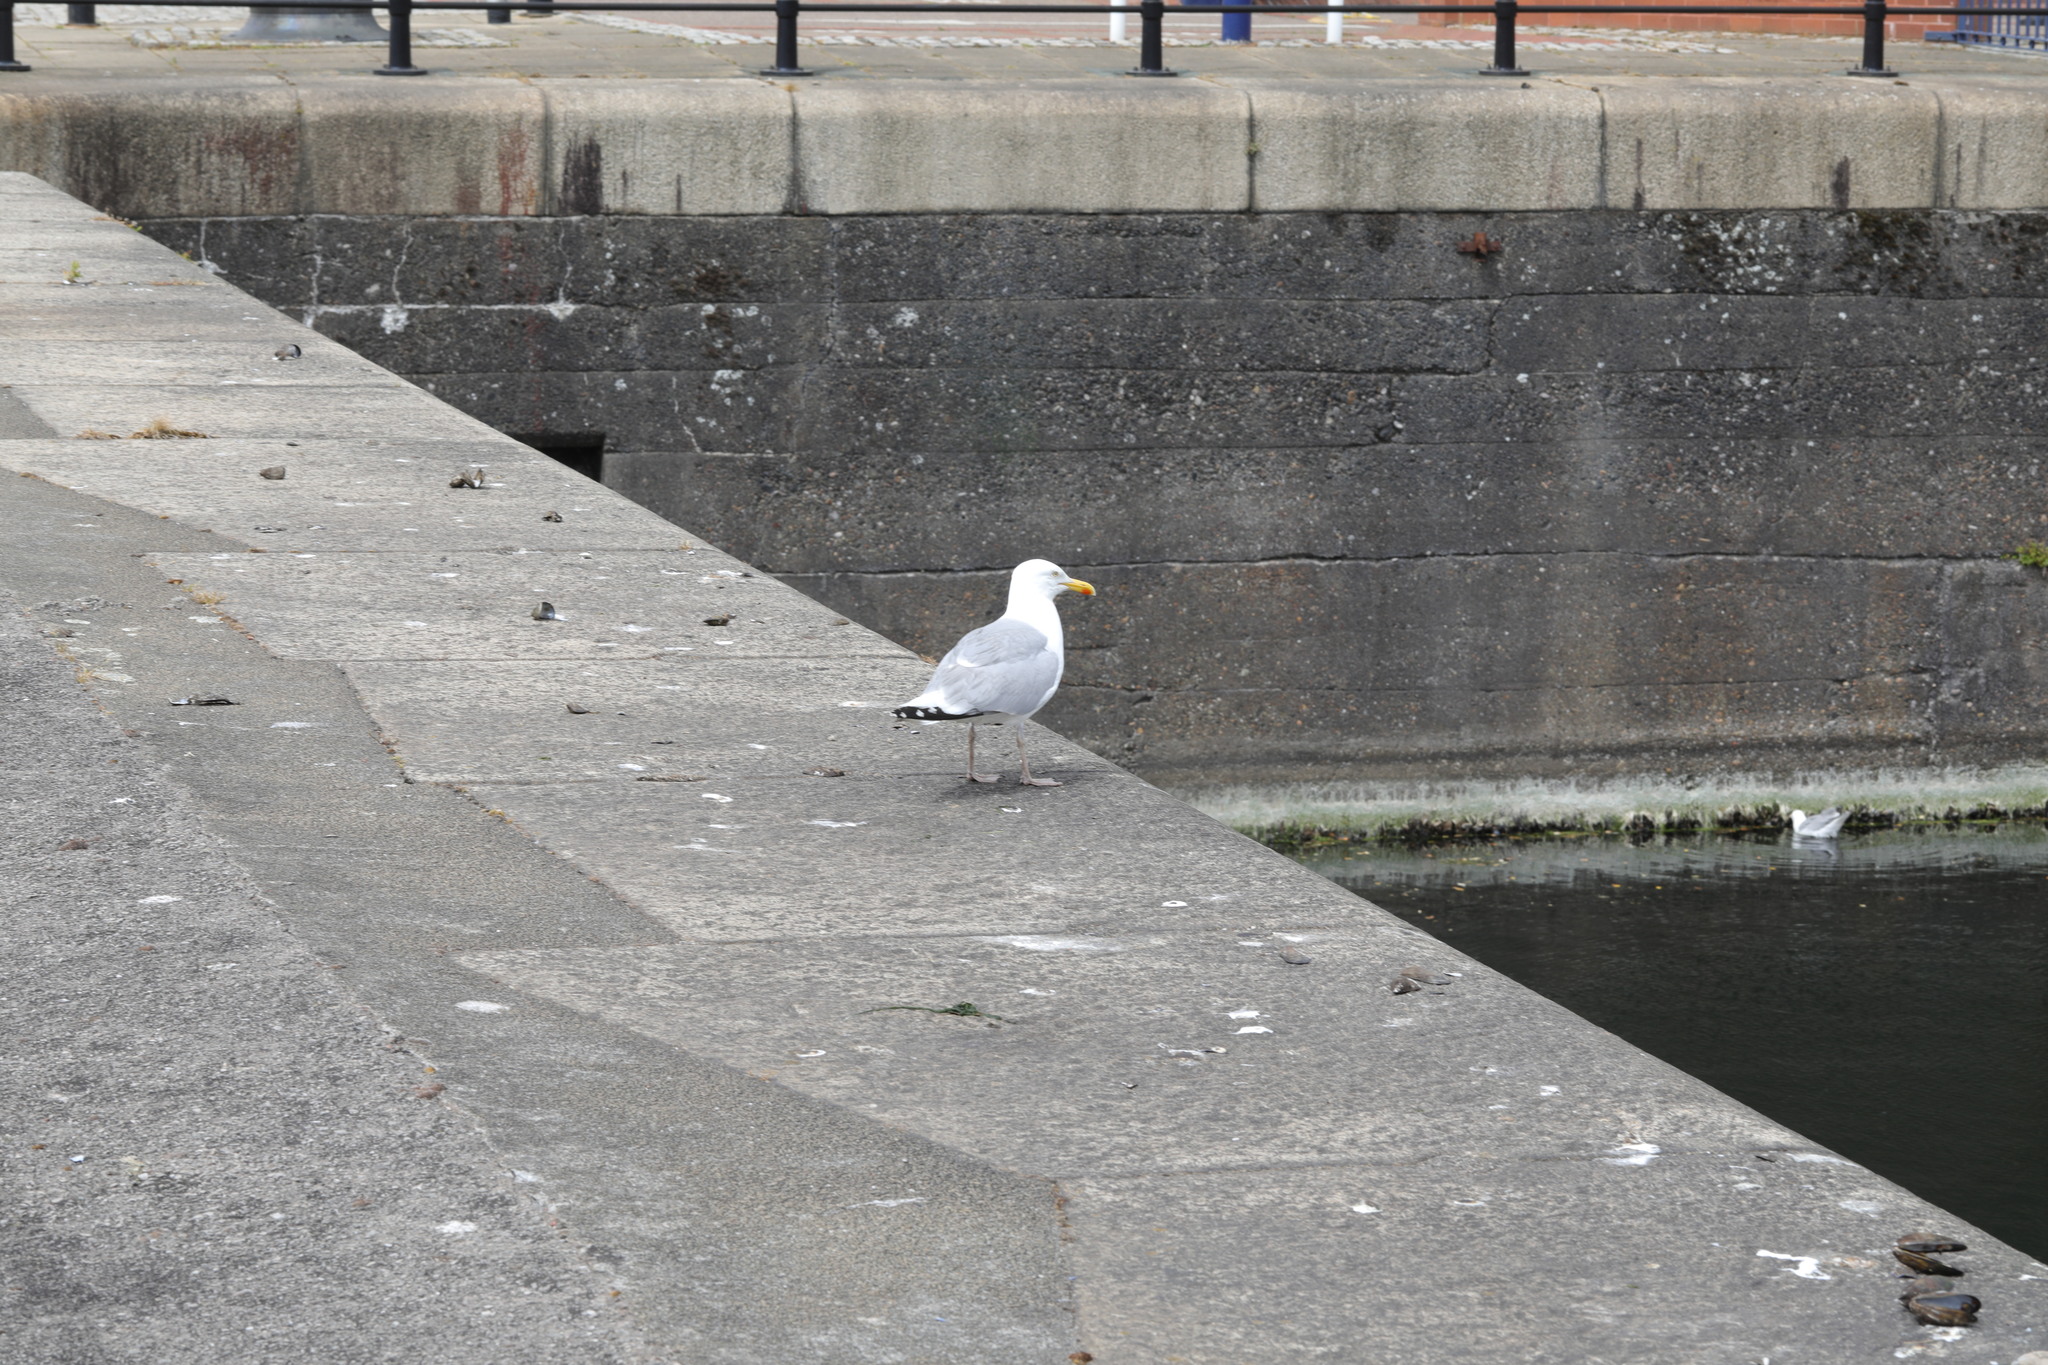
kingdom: Animalia
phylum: Chordata
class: Aves
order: Charadriiformes
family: Laridae
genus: Larus
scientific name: Larus argentatus
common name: Herring gull
